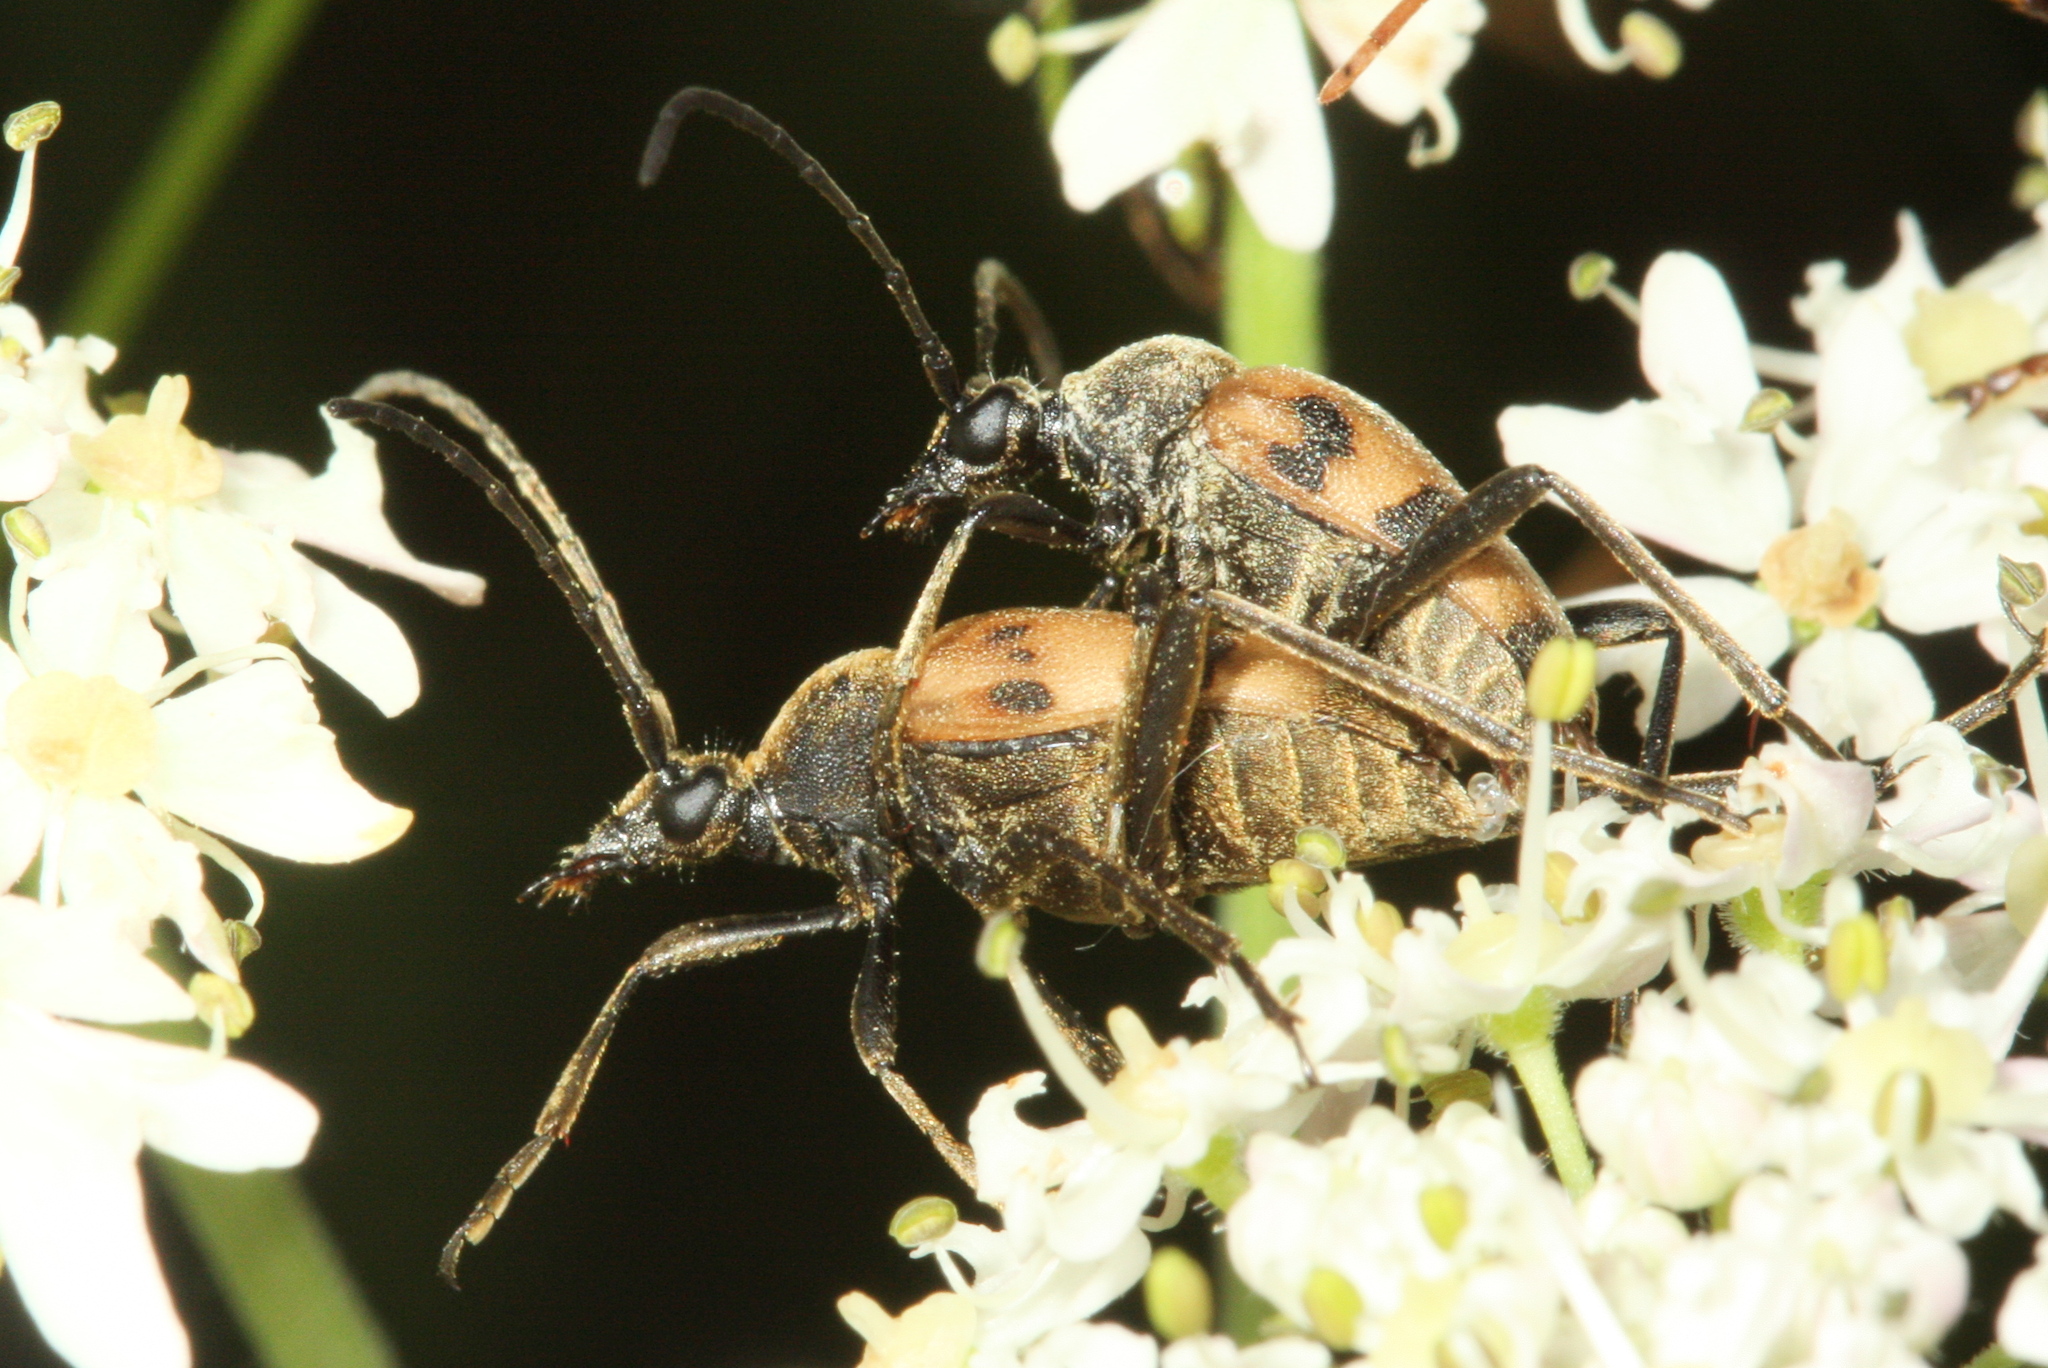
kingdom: Animalia
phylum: Arthropoda
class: Insecta
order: Coleoptera
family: Cerambycidae
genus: Pachytodes
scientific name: Pachytodes cerambyciformis
